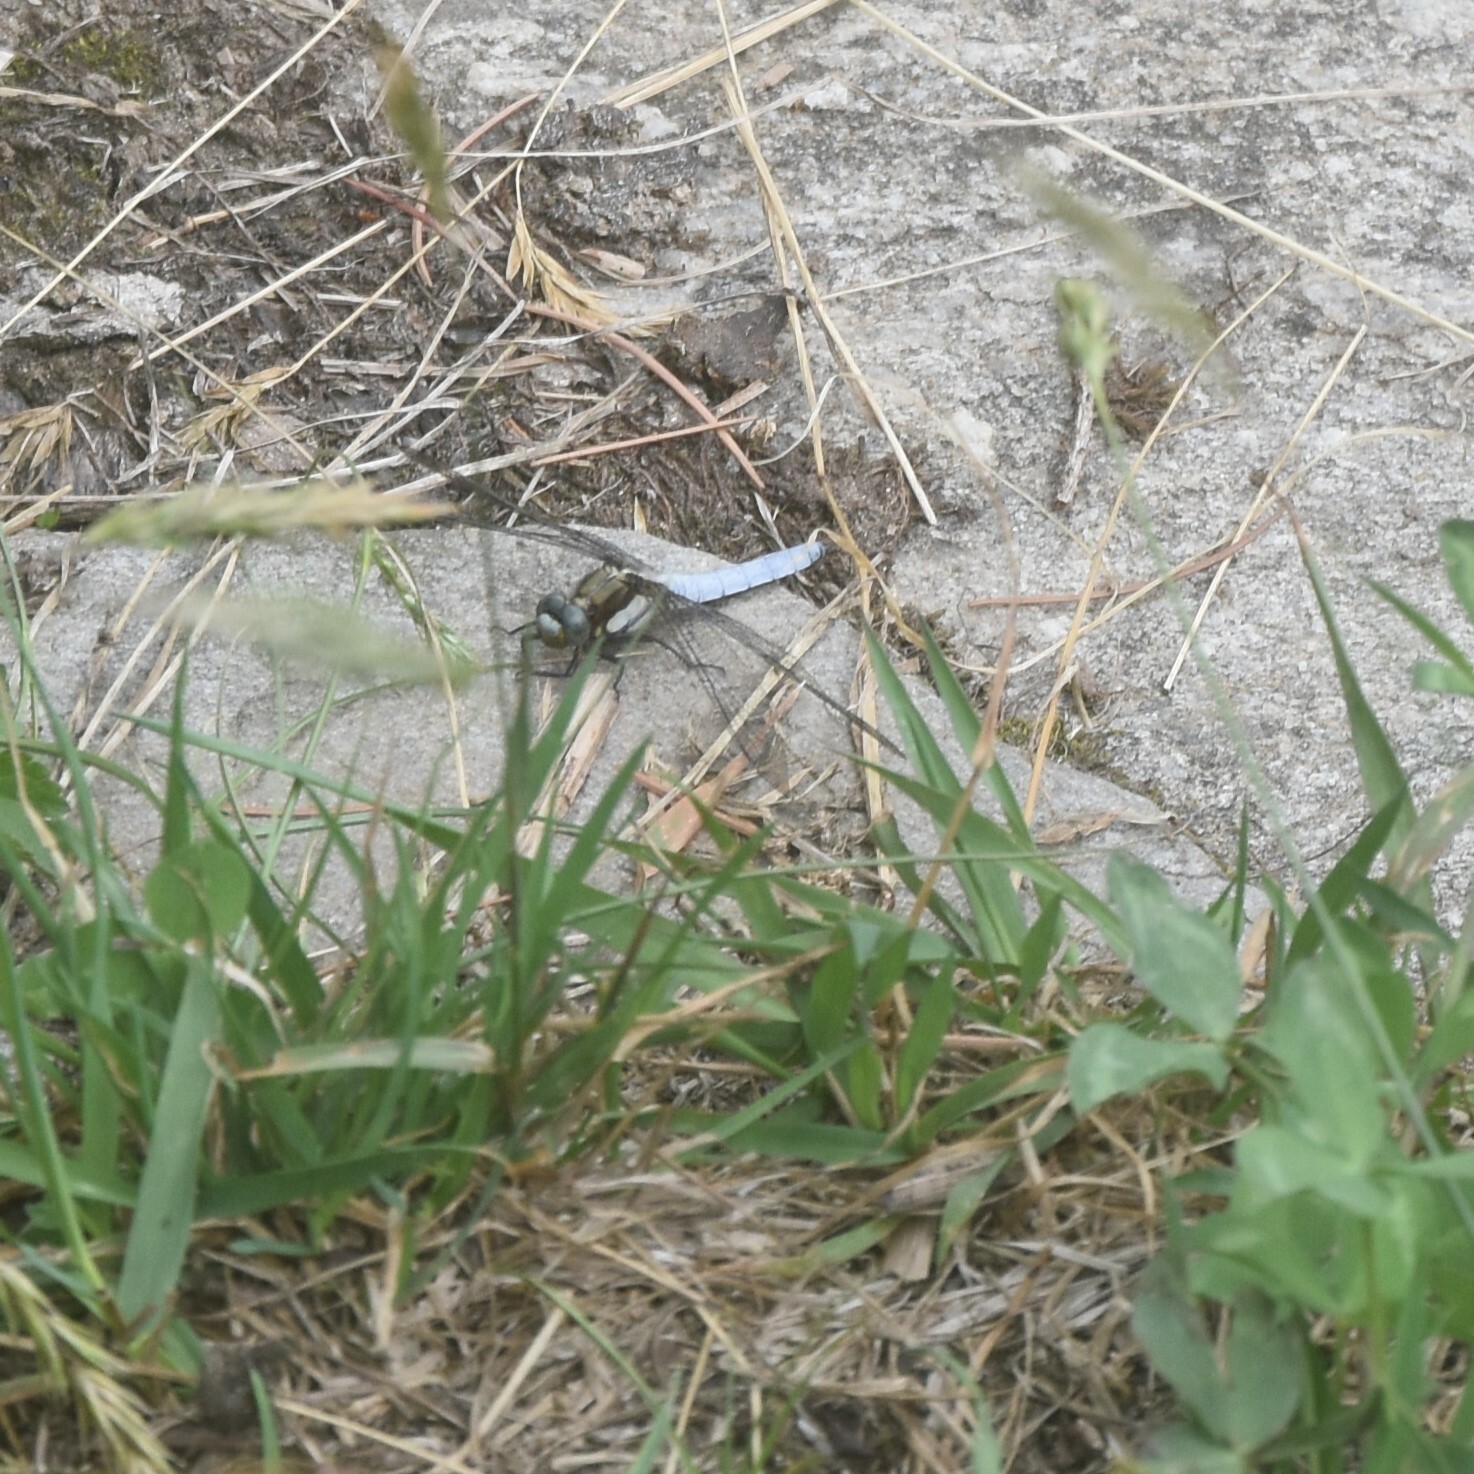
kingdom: Animalia
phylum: Arthropoda
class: Insecta
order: Odonata
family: Libellulidae
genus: Orthetrum
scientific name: Orthetrum internum
